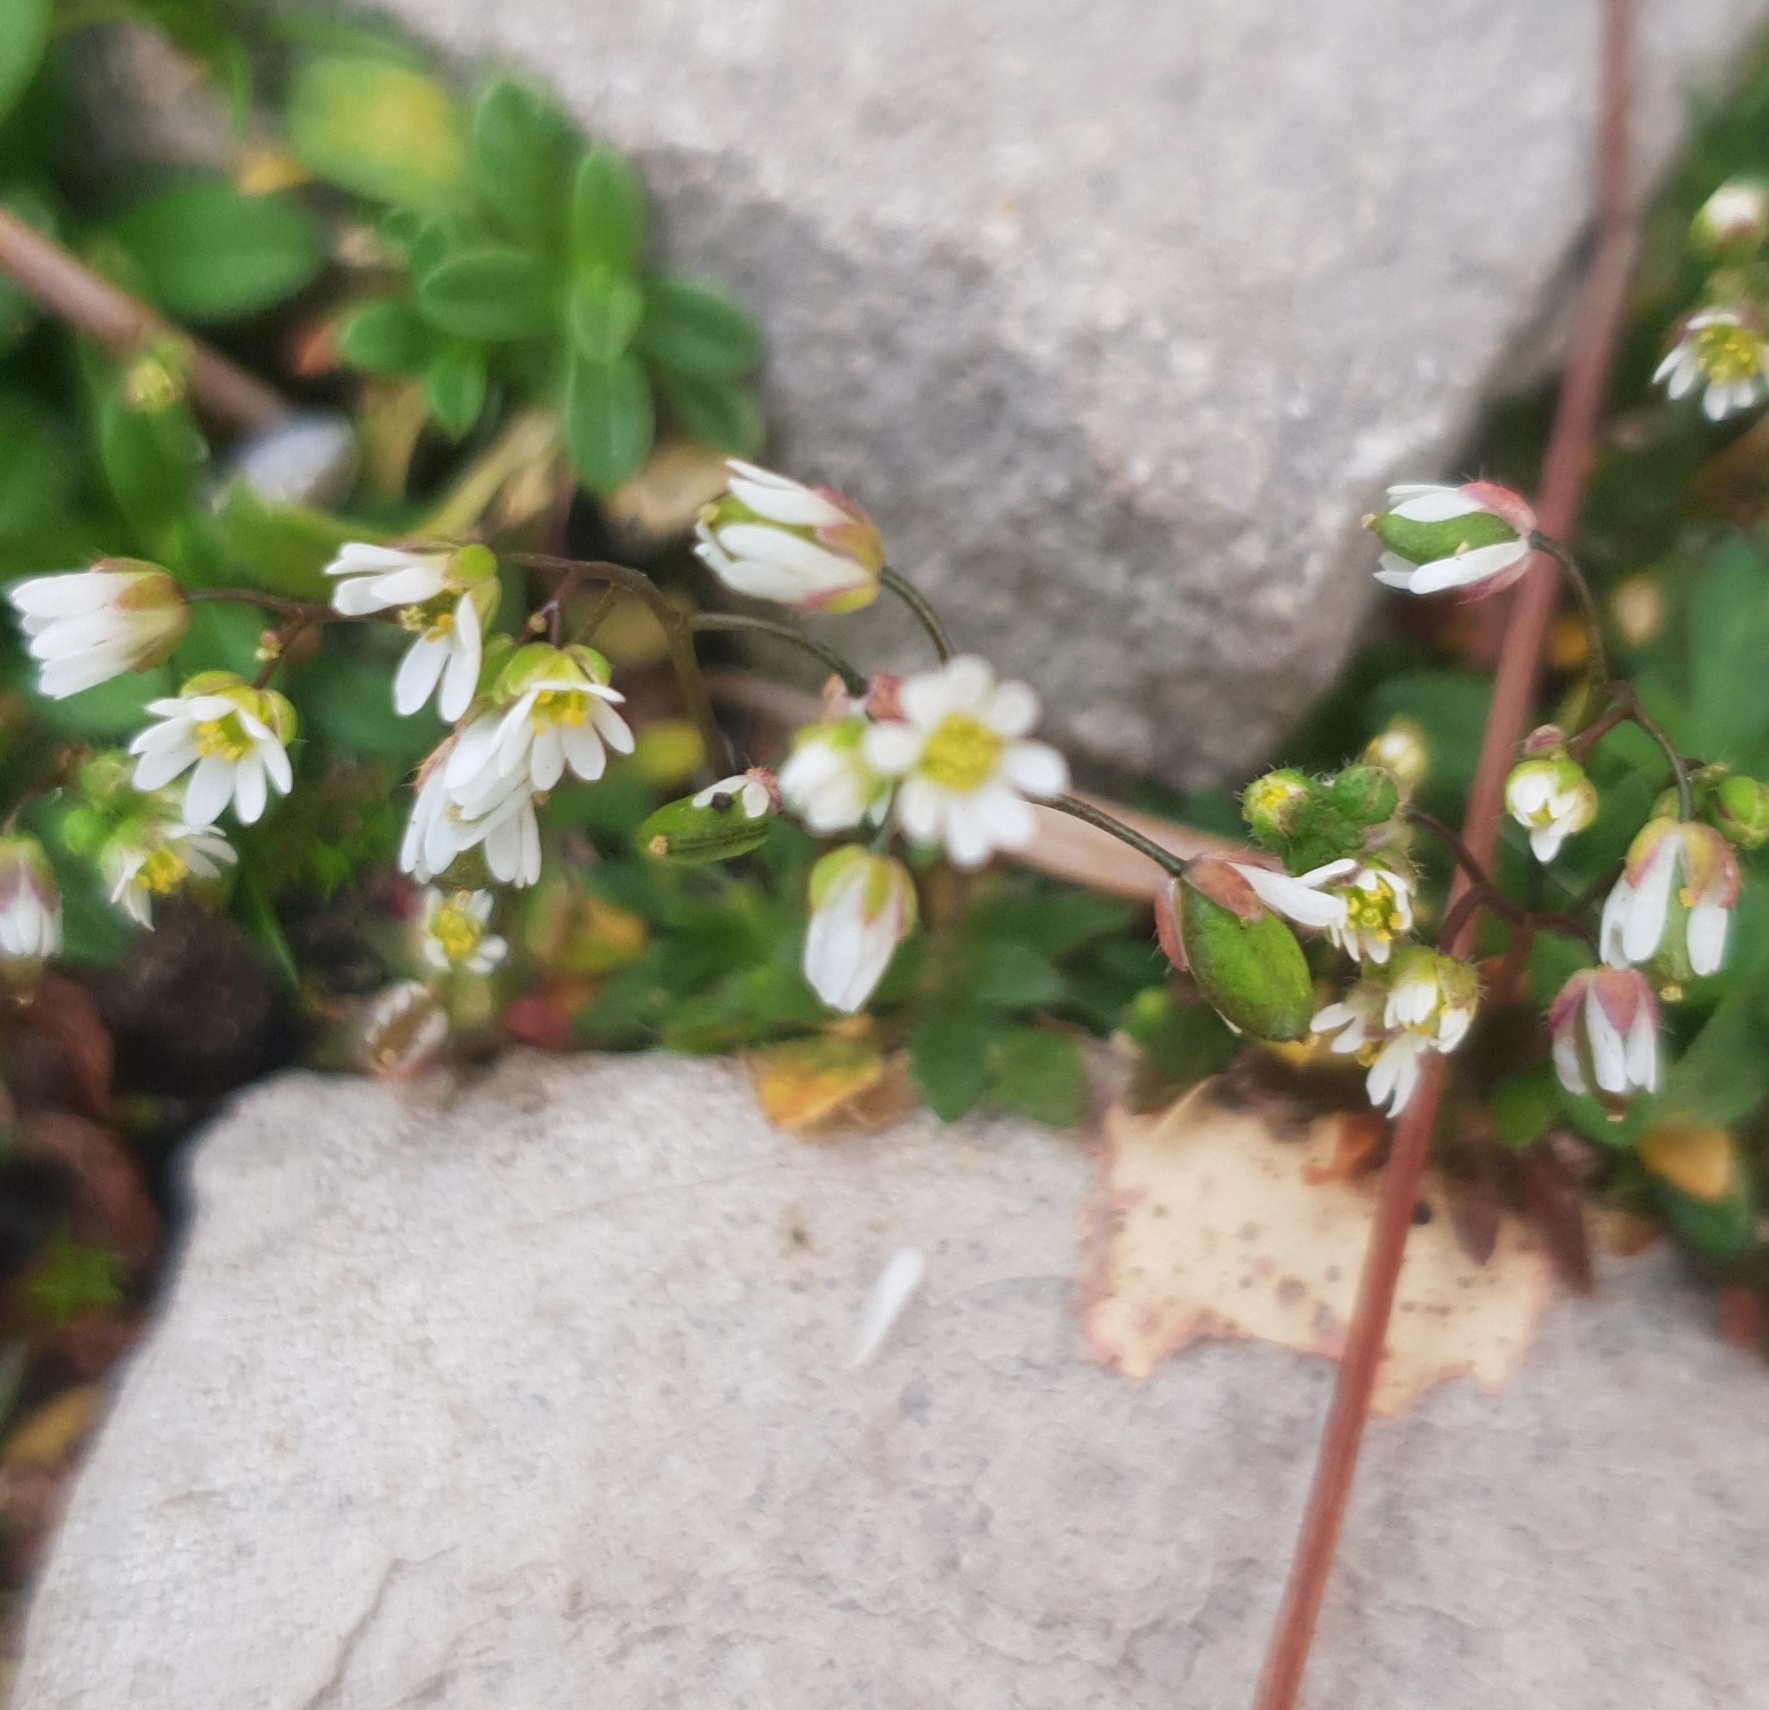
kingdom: Plantae
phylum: Tracheophyta
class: Magnoliopsida
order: Brassicales
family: Brassicaceae
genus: Draba
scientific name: Draba verna
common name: Spring draba
